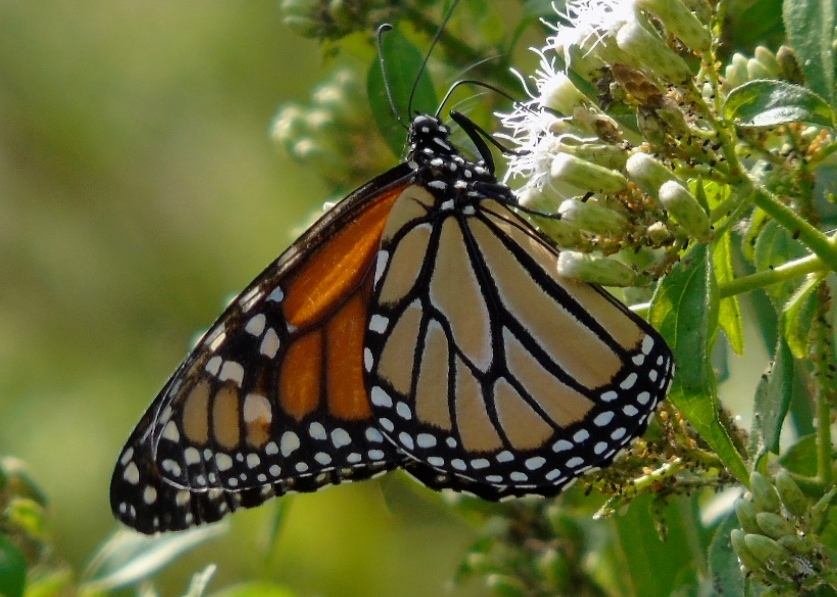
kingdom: Animalia
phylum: Arthropoda
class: Insecta
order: Lepidoptera
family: Nymphalidae
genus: Danaus
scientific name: Danaus plexippus
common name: Monarch
